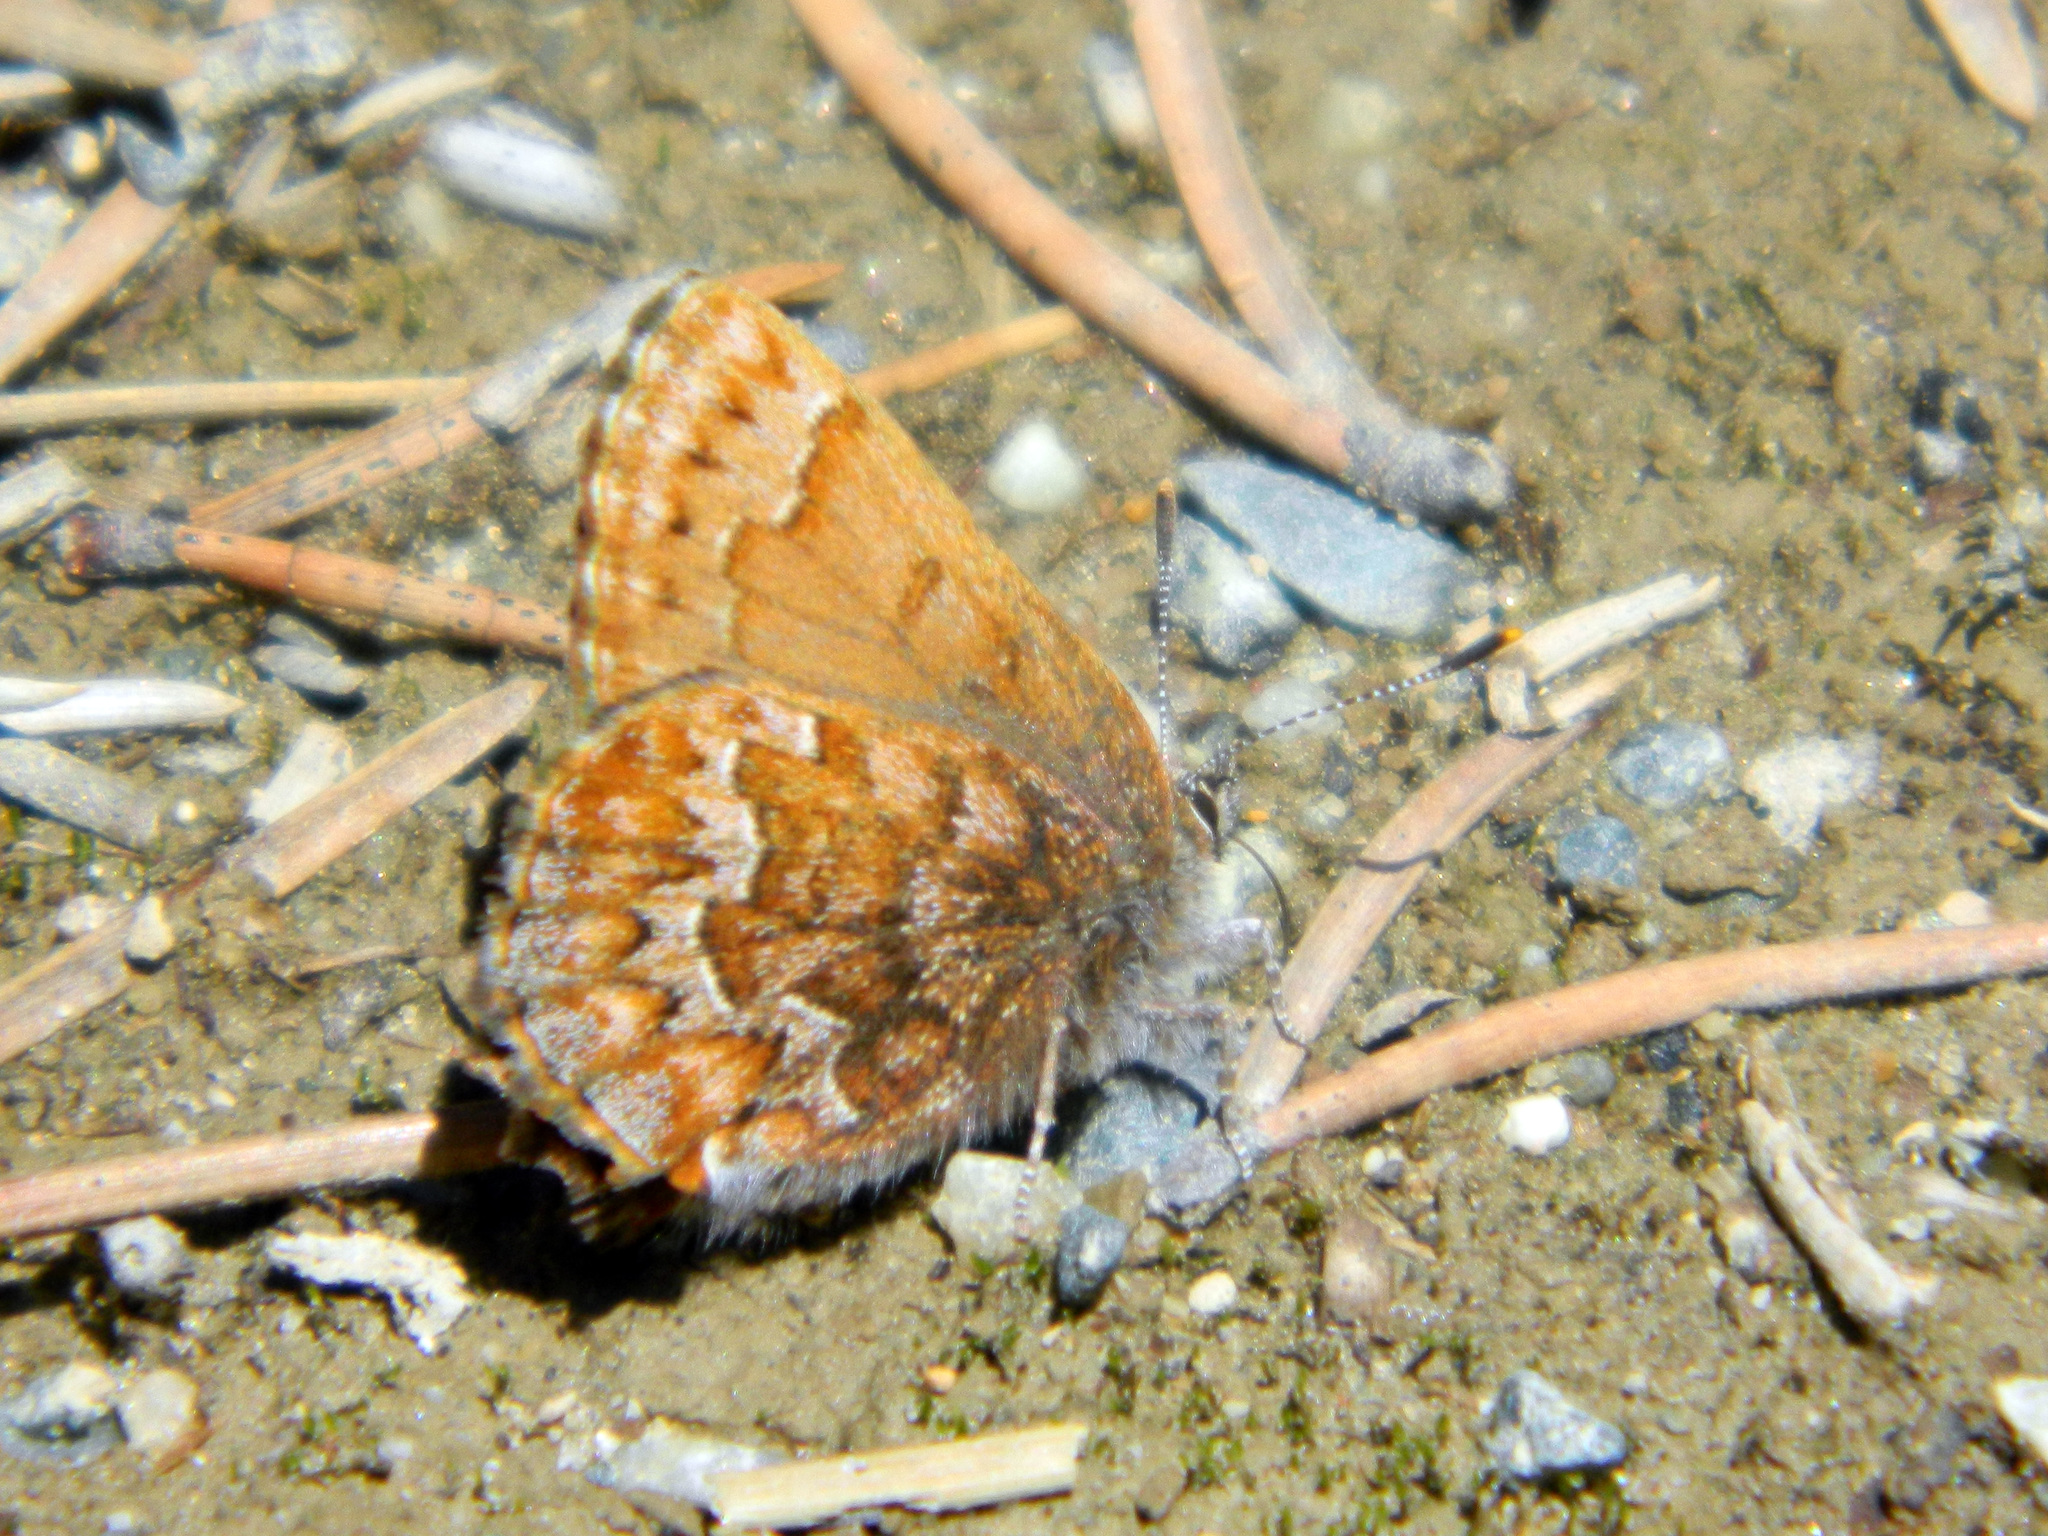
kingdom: Animalia
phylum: Arthropoda
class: Insecta
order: Lepidoptera
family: Lycaenidae
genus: Incisalia
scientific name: Incisalia niphon
